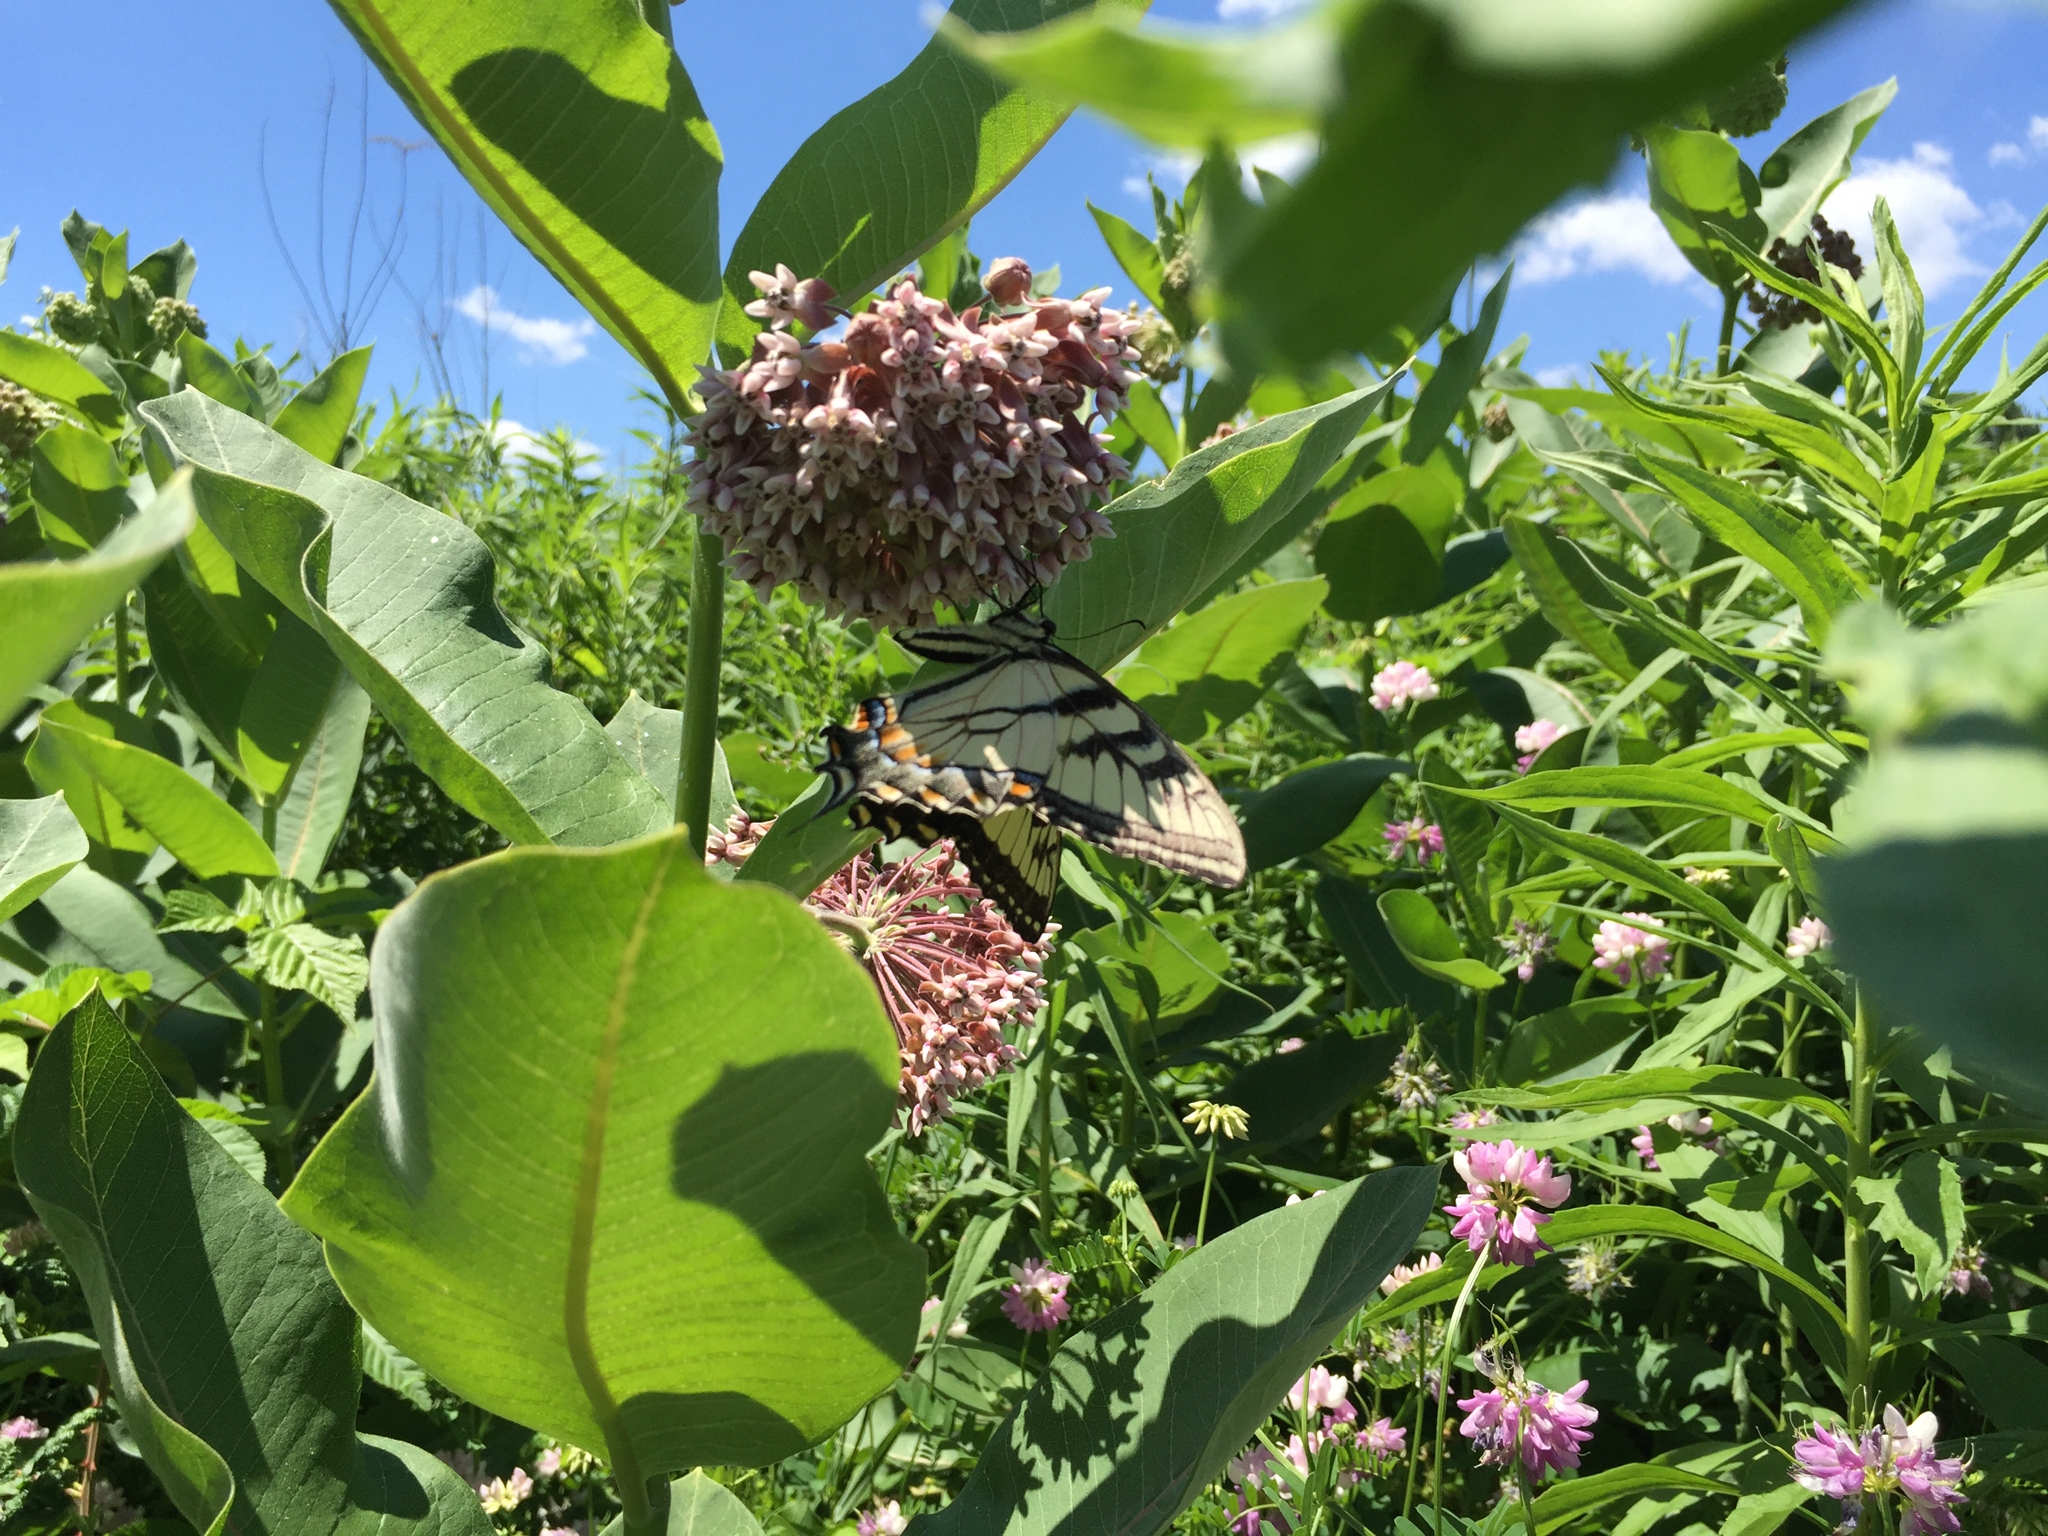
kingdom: Animalia
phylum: Arthropoda
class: Insecta
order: Lepidoptera
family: Papilionidae
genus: Papilio
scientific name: Papilio glaucus
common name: Tiger swallowtail
